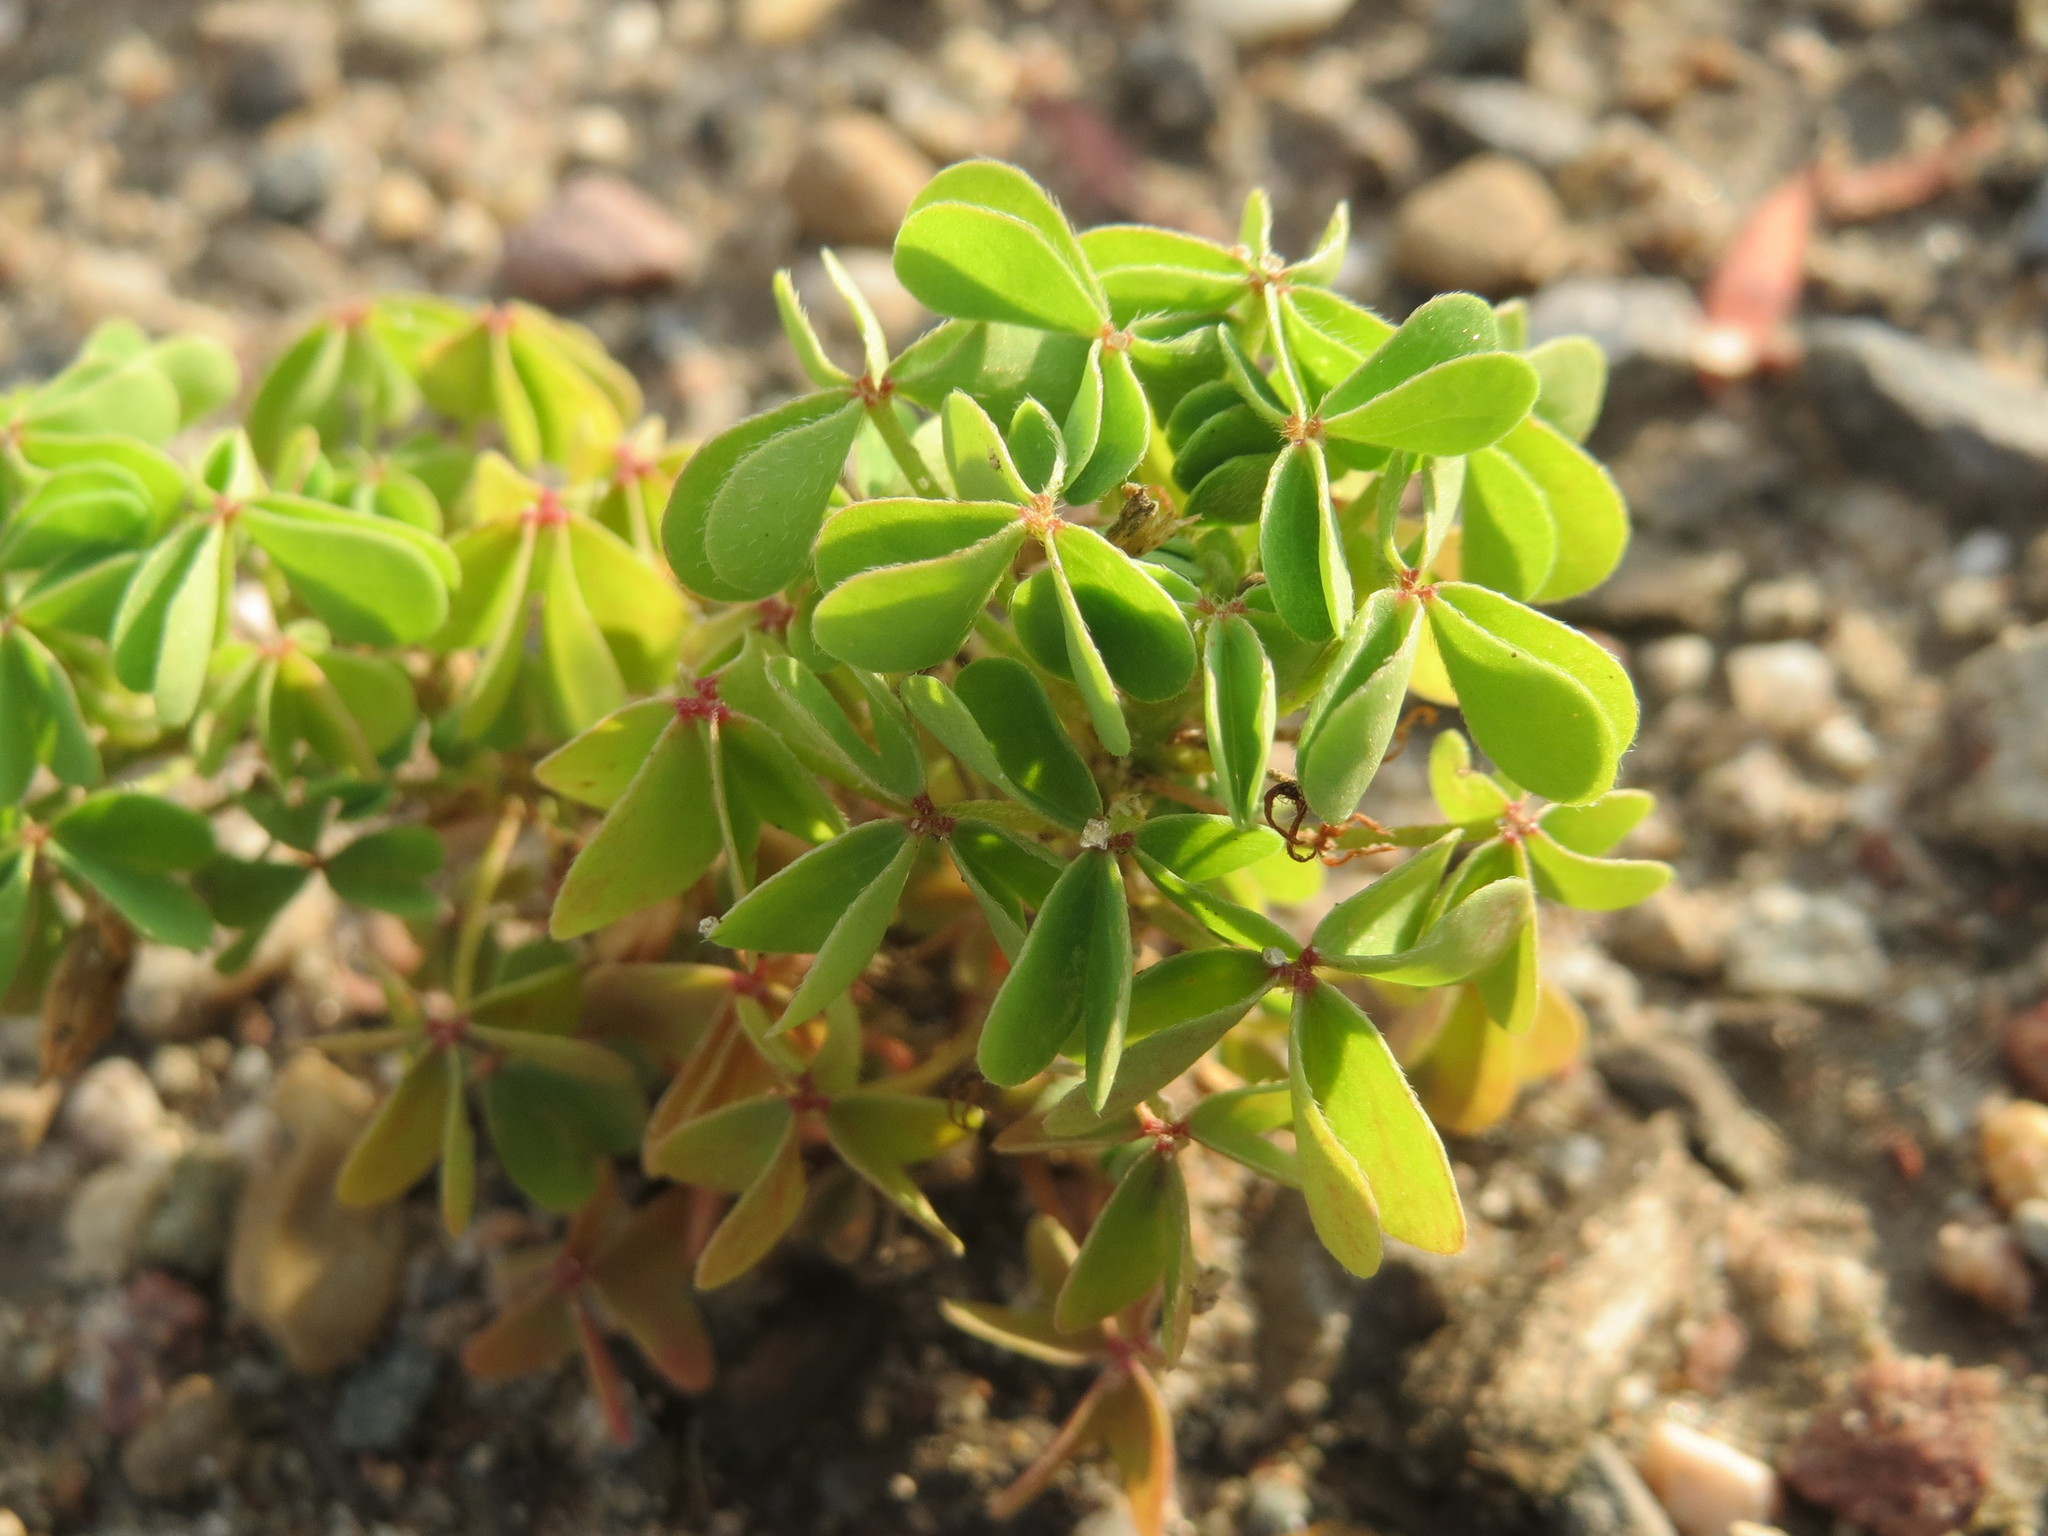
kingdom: Plantae
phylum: Tracheophyta
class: Magnoliopsida
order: Oxalidales
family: Oxalidaceae
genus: Oxalis
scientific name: Oxalis stricta
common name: Upright yellow-sorrel
